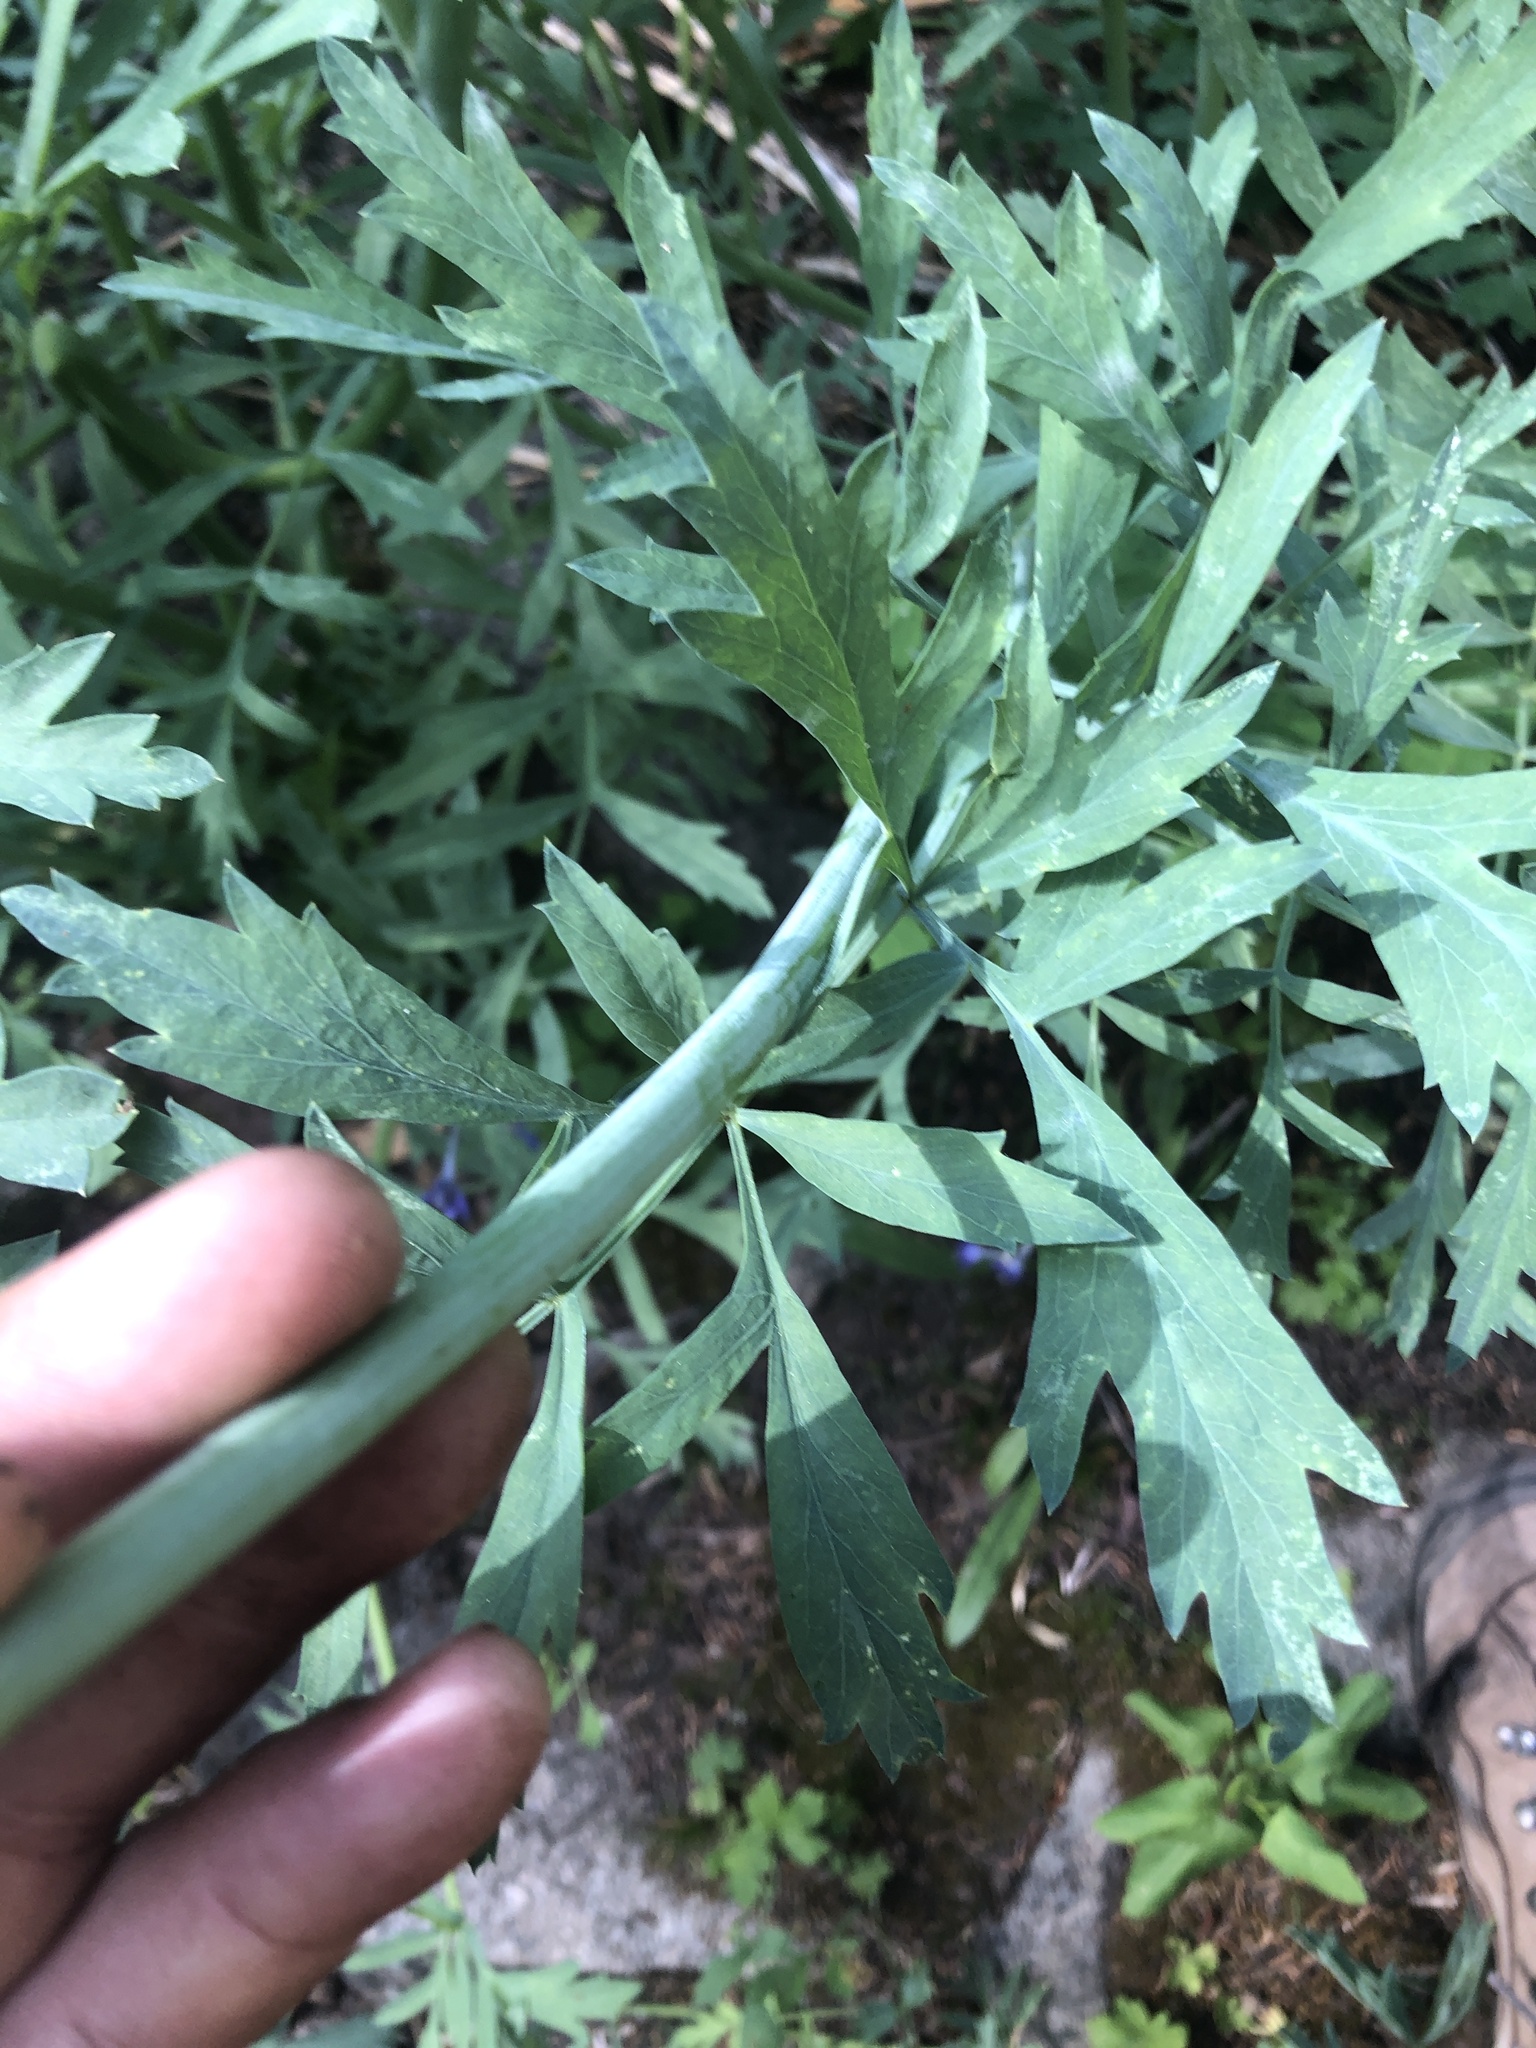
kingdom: Plantae
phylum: Tracheophyta
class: Magnoliopsida
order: Apiales
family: Apiaceae
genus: Angelica
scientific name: Angelica capitellata
